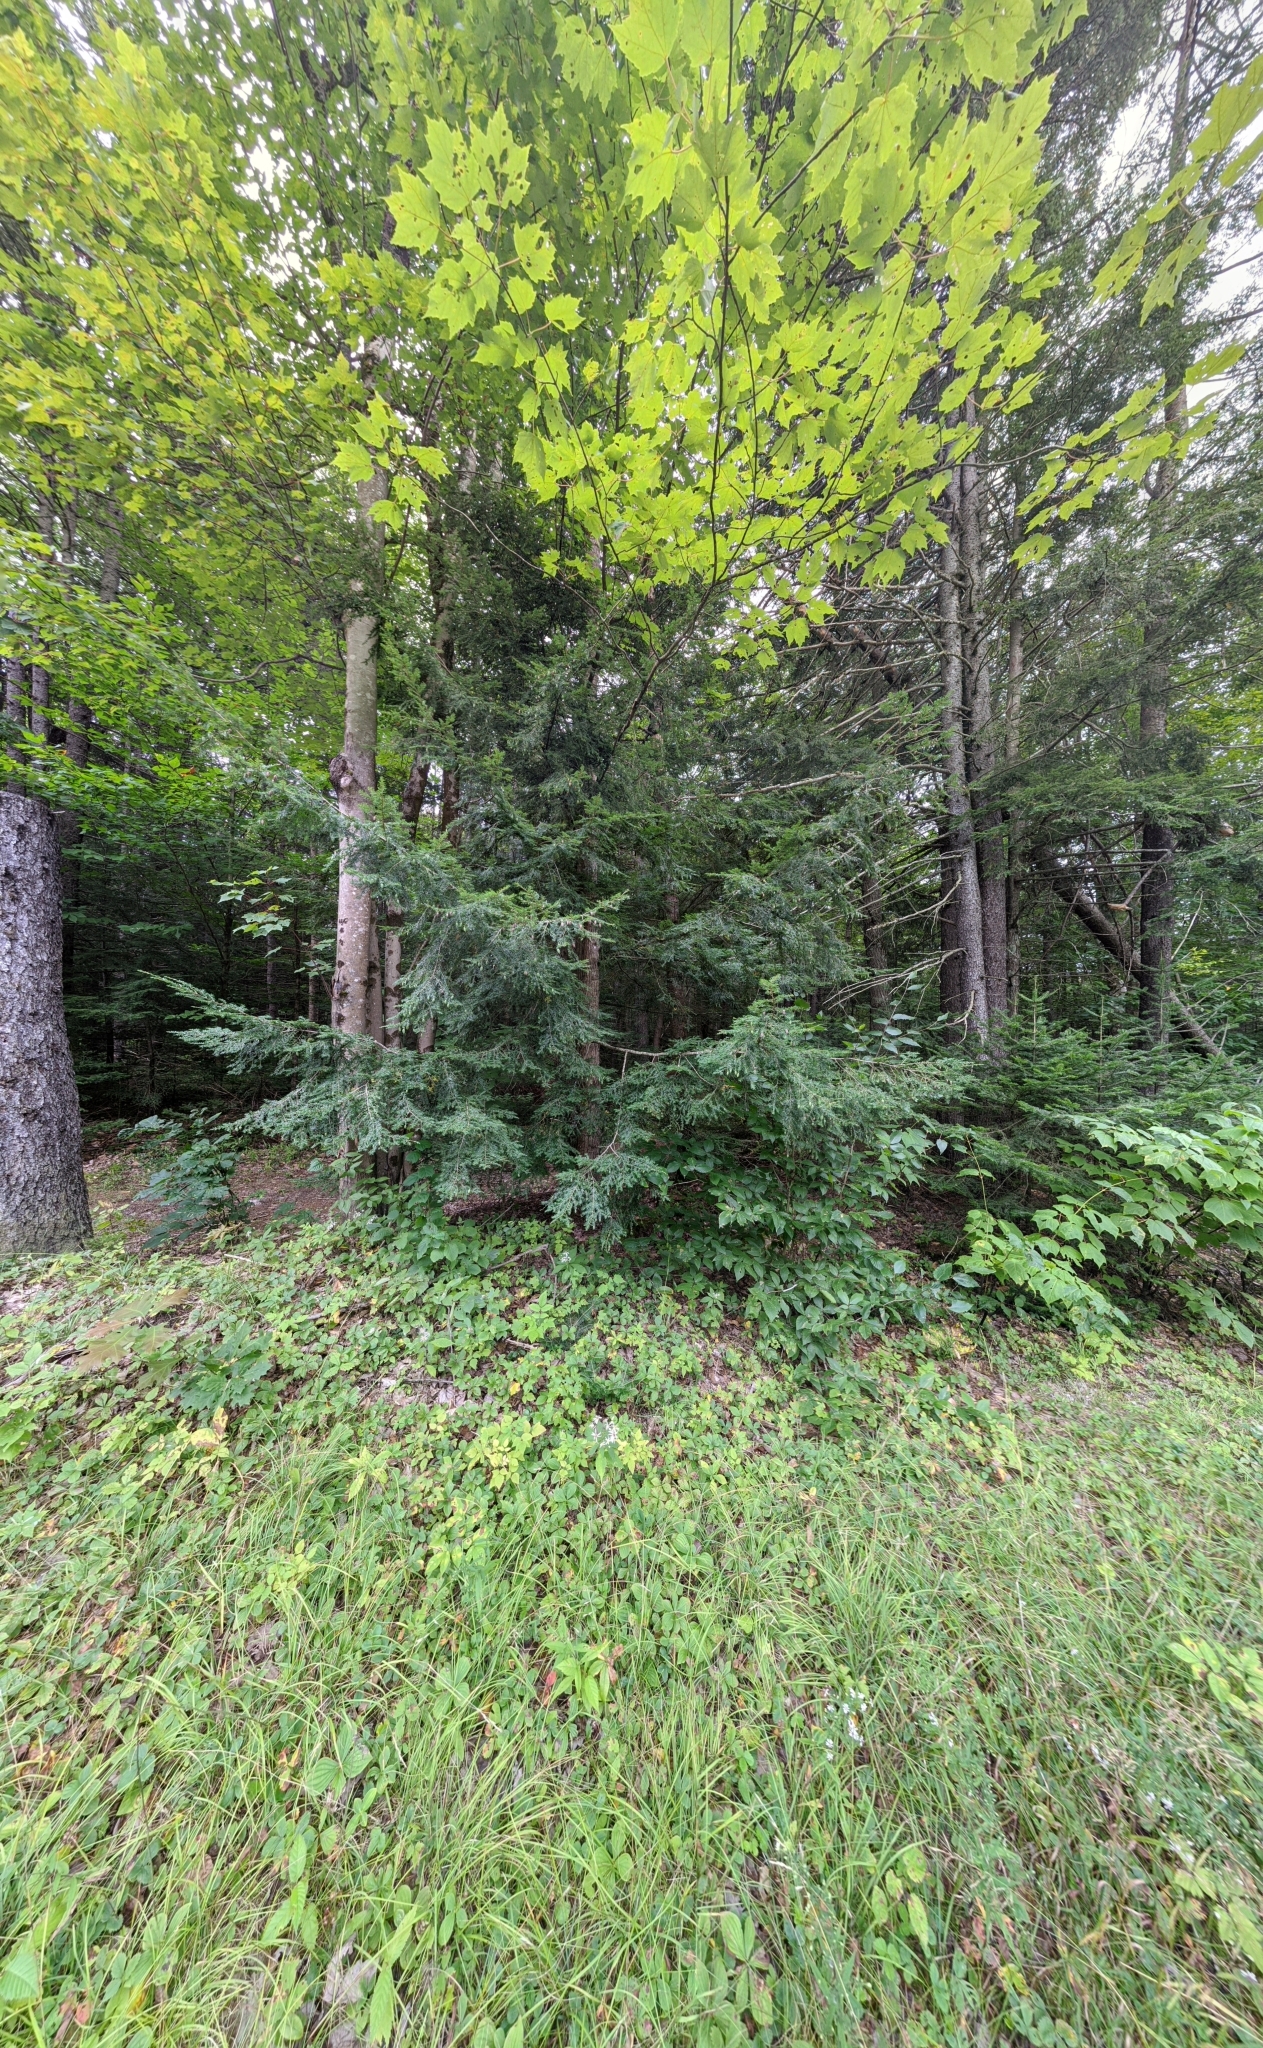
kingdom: Plantae
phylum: Tracheophyta
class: Pinopsida
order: Pinales
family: Pinaceae
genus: Tsuga
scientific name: Tsuga canadensis
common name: Eastern hemlock
